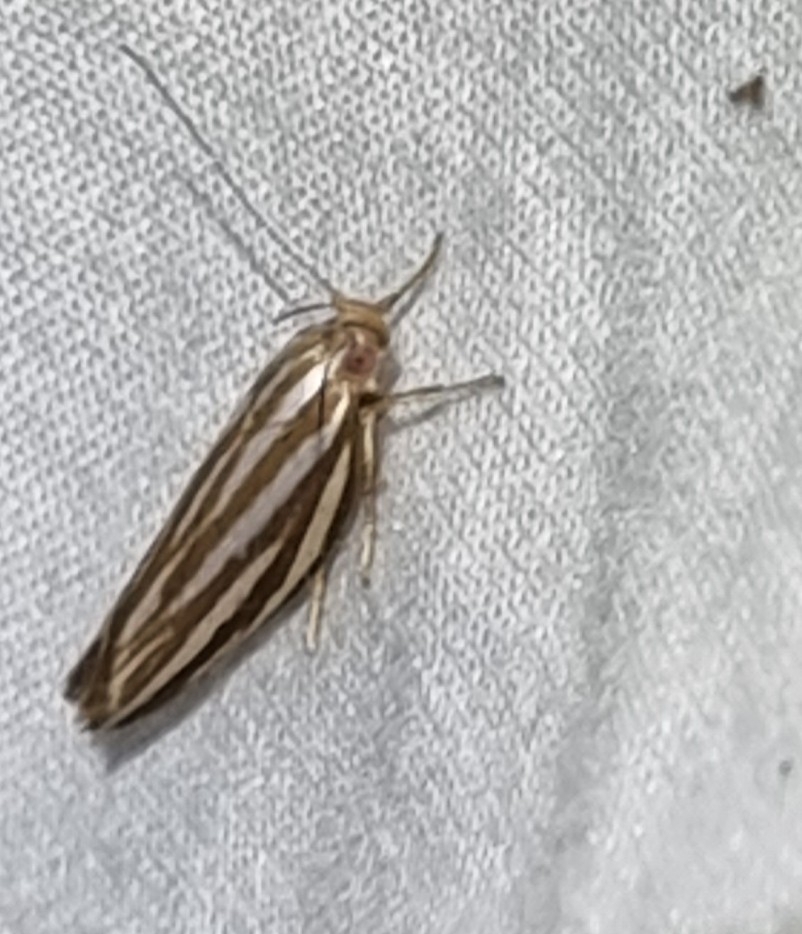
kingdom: Animalia
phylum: Arthropoda
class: Insecta
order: Lepidoptera
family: Xyloryctidae
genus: Catoryctis
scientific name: Catoryctis eugramma
